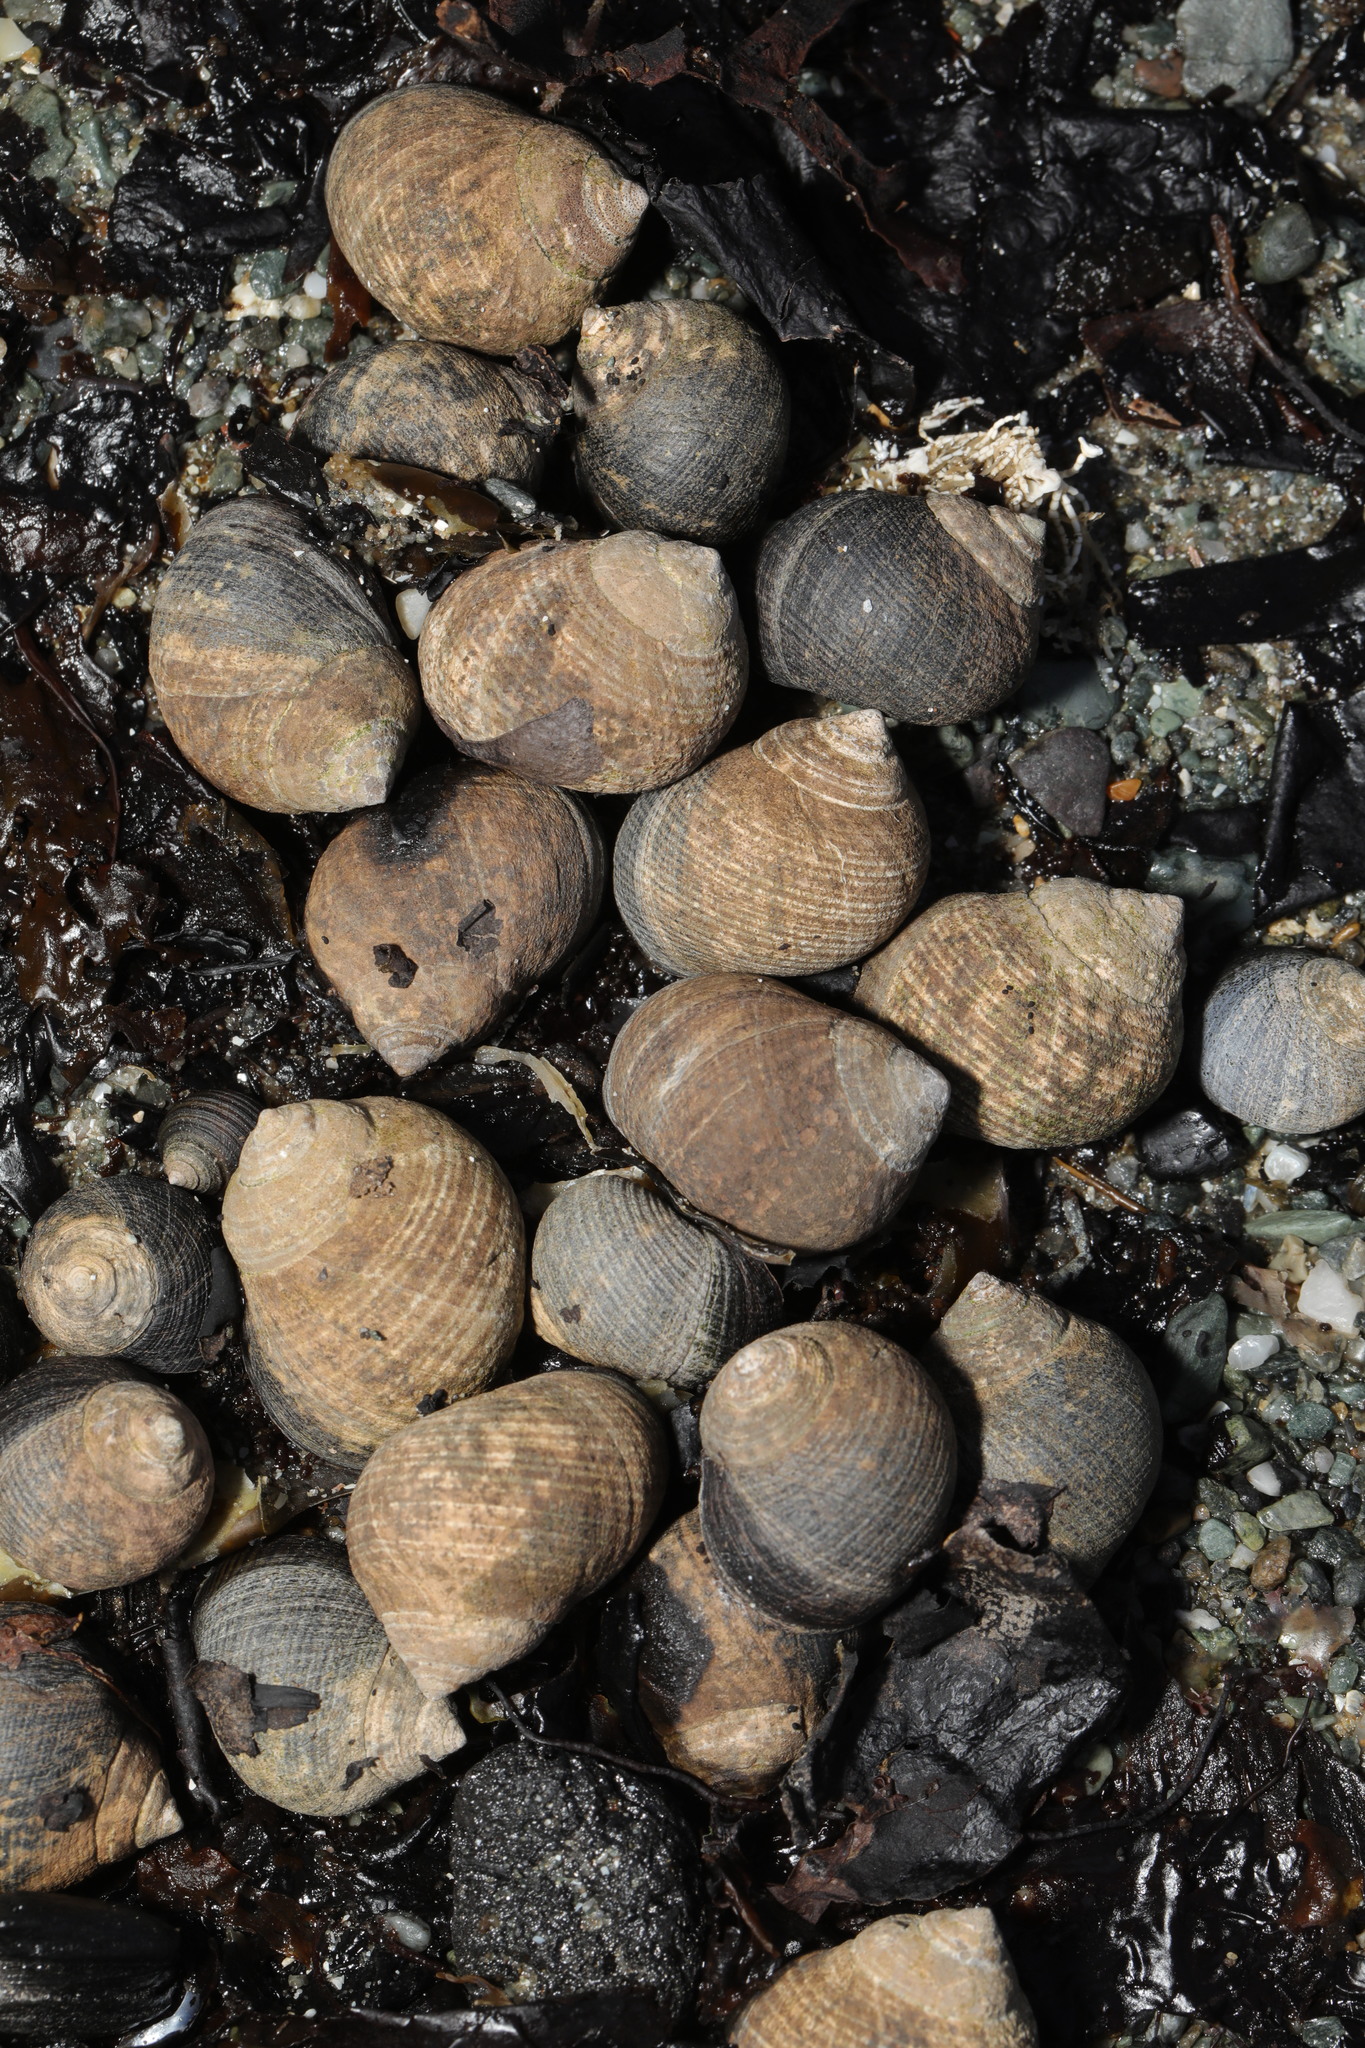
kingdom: Animalia
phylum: Mollusca
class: Gastropoda
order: Littorinimorpha
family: Littorinidae
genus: Littorina
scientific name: Littorina littorea
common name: Common periwinkle
